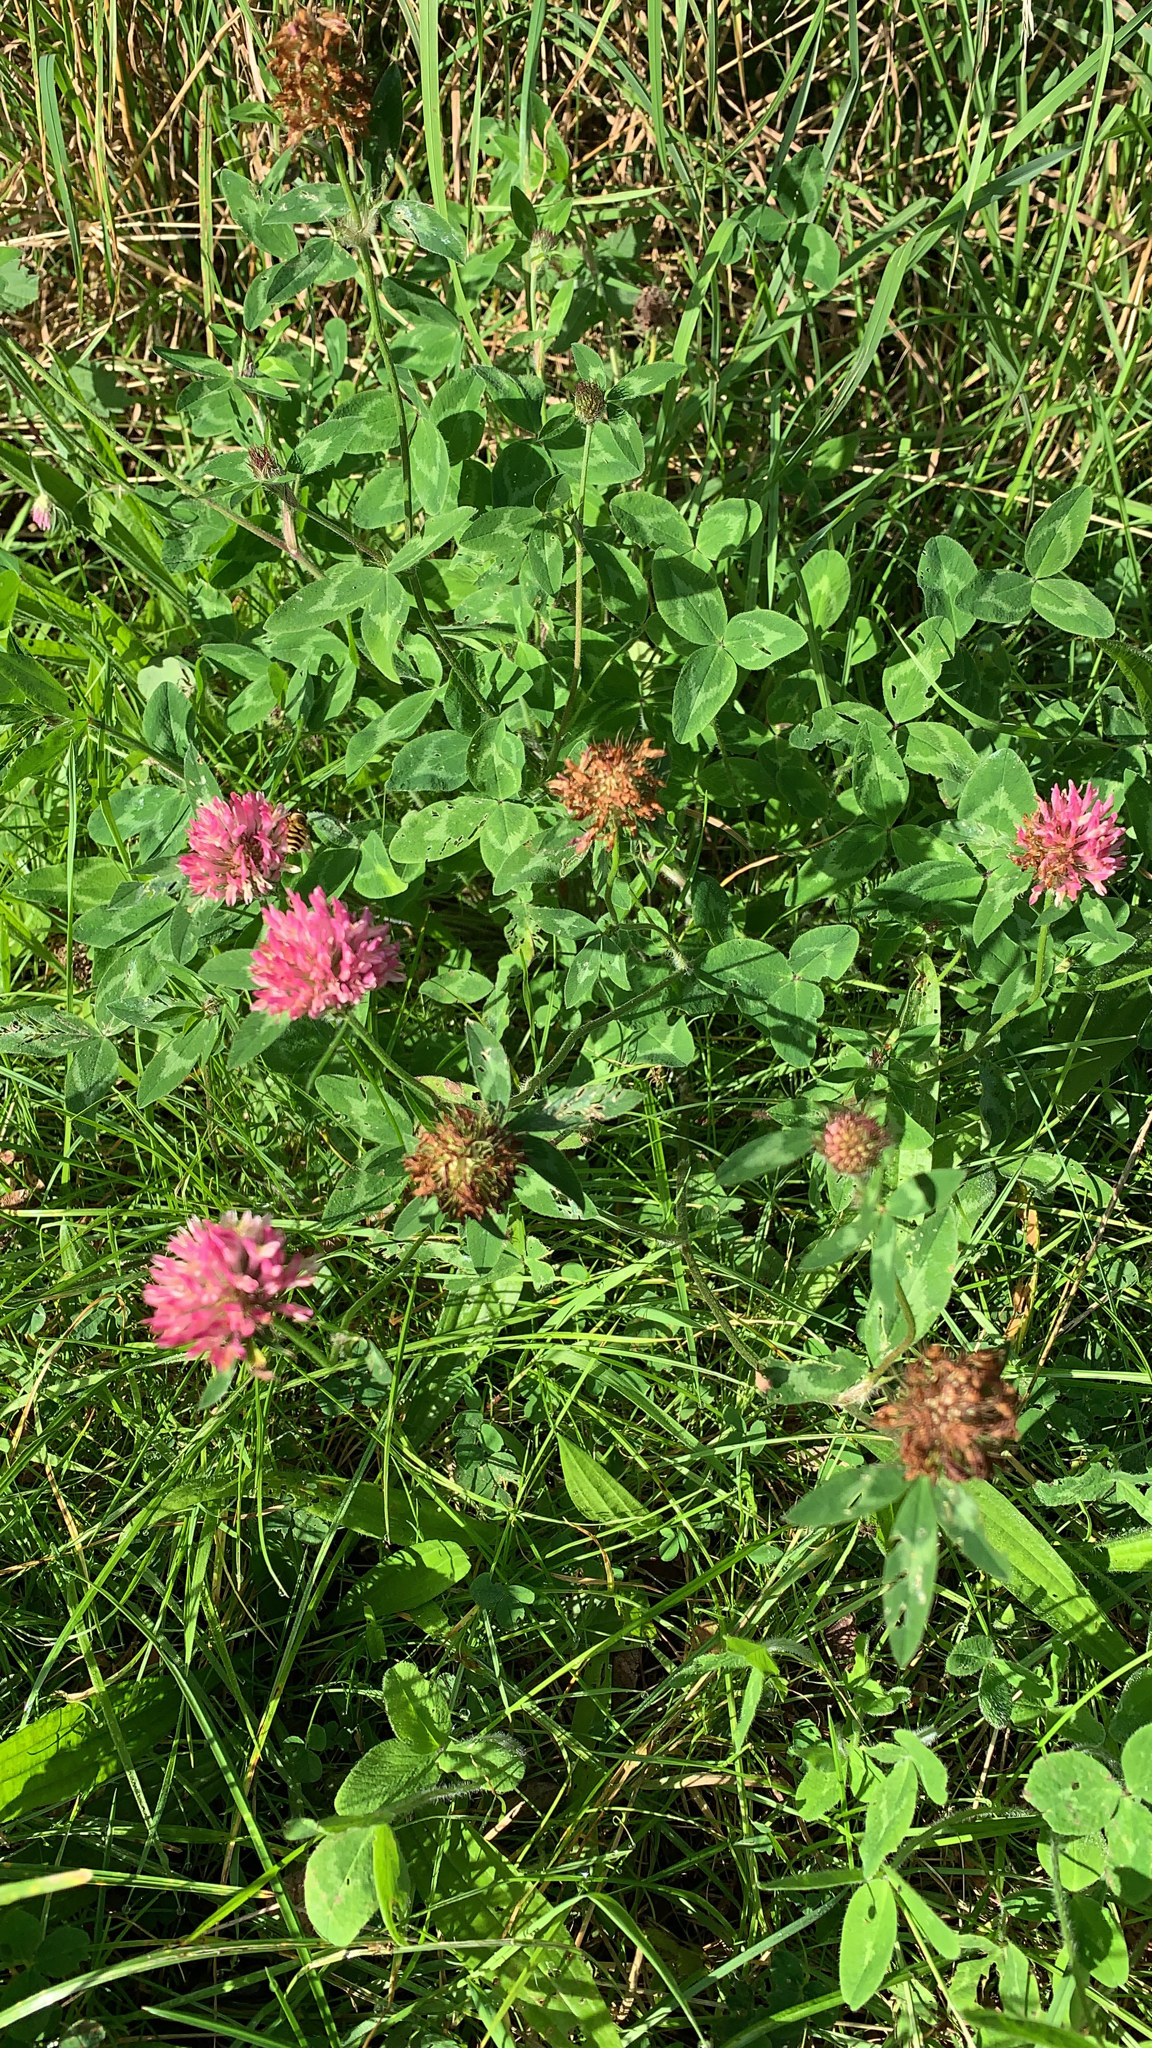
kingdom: Plantae
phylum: Tracheophyta
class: Magnoliopsida
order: Fabales
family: Fabaceae
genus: Trifolium
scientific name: Trifolium pratense
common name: Red clover
